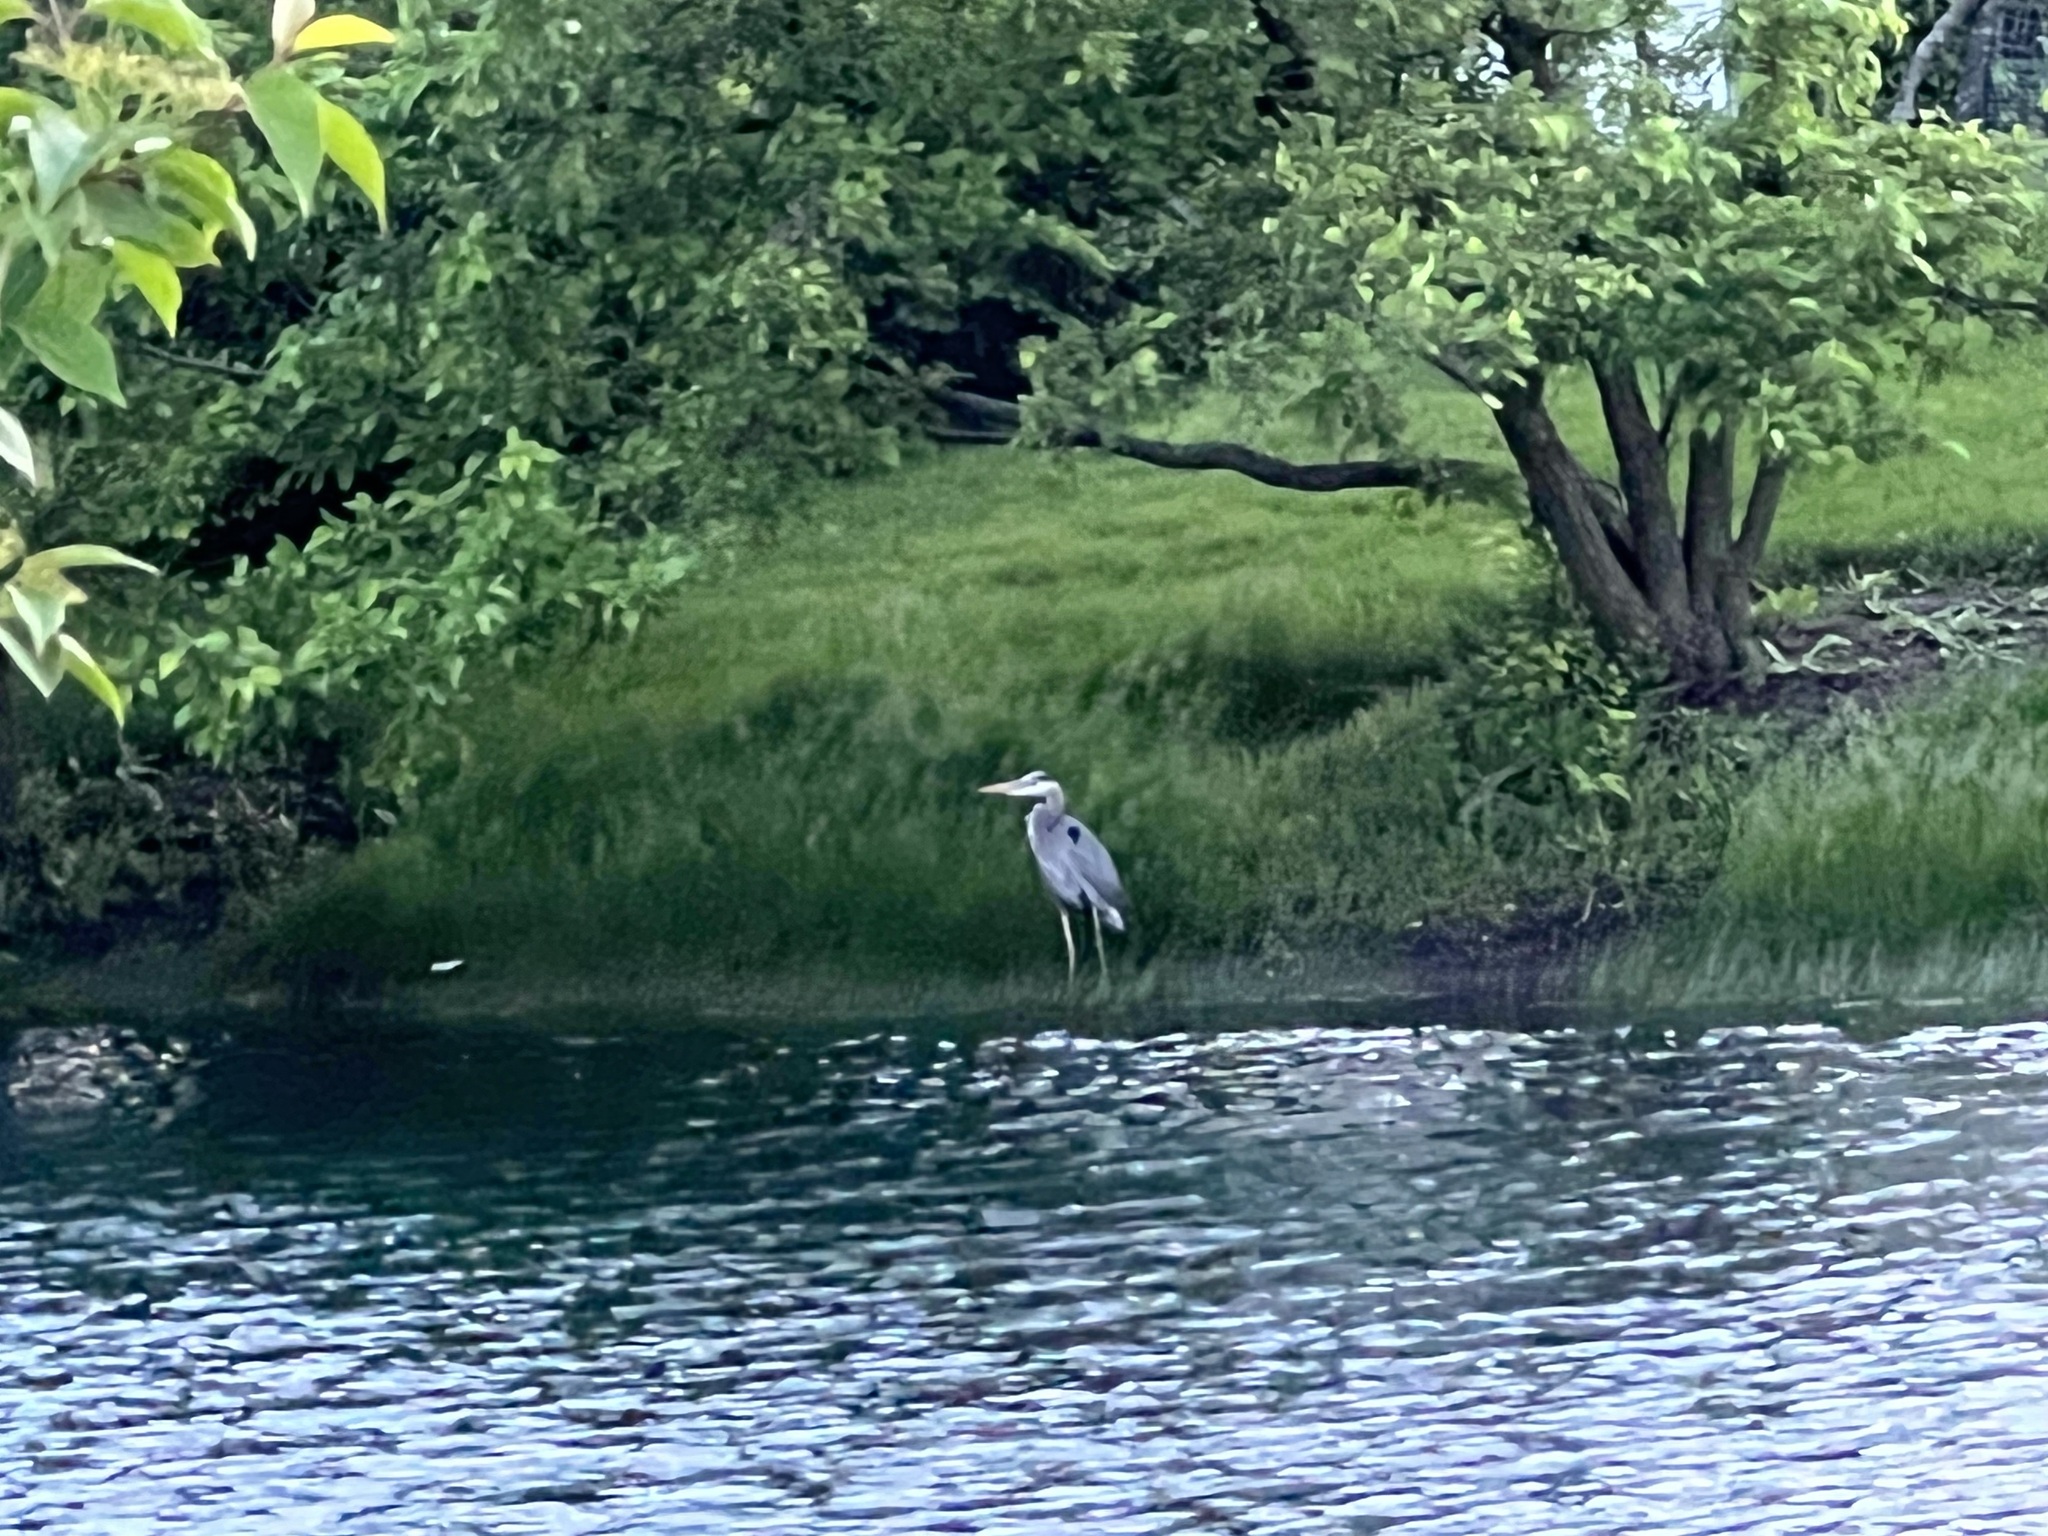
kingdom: Animalia
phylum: Chordata
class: Aves
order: Pelecaniformes
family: Ardeidae
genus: Ardea
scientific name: Ardea herodias
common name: Great blue heron
